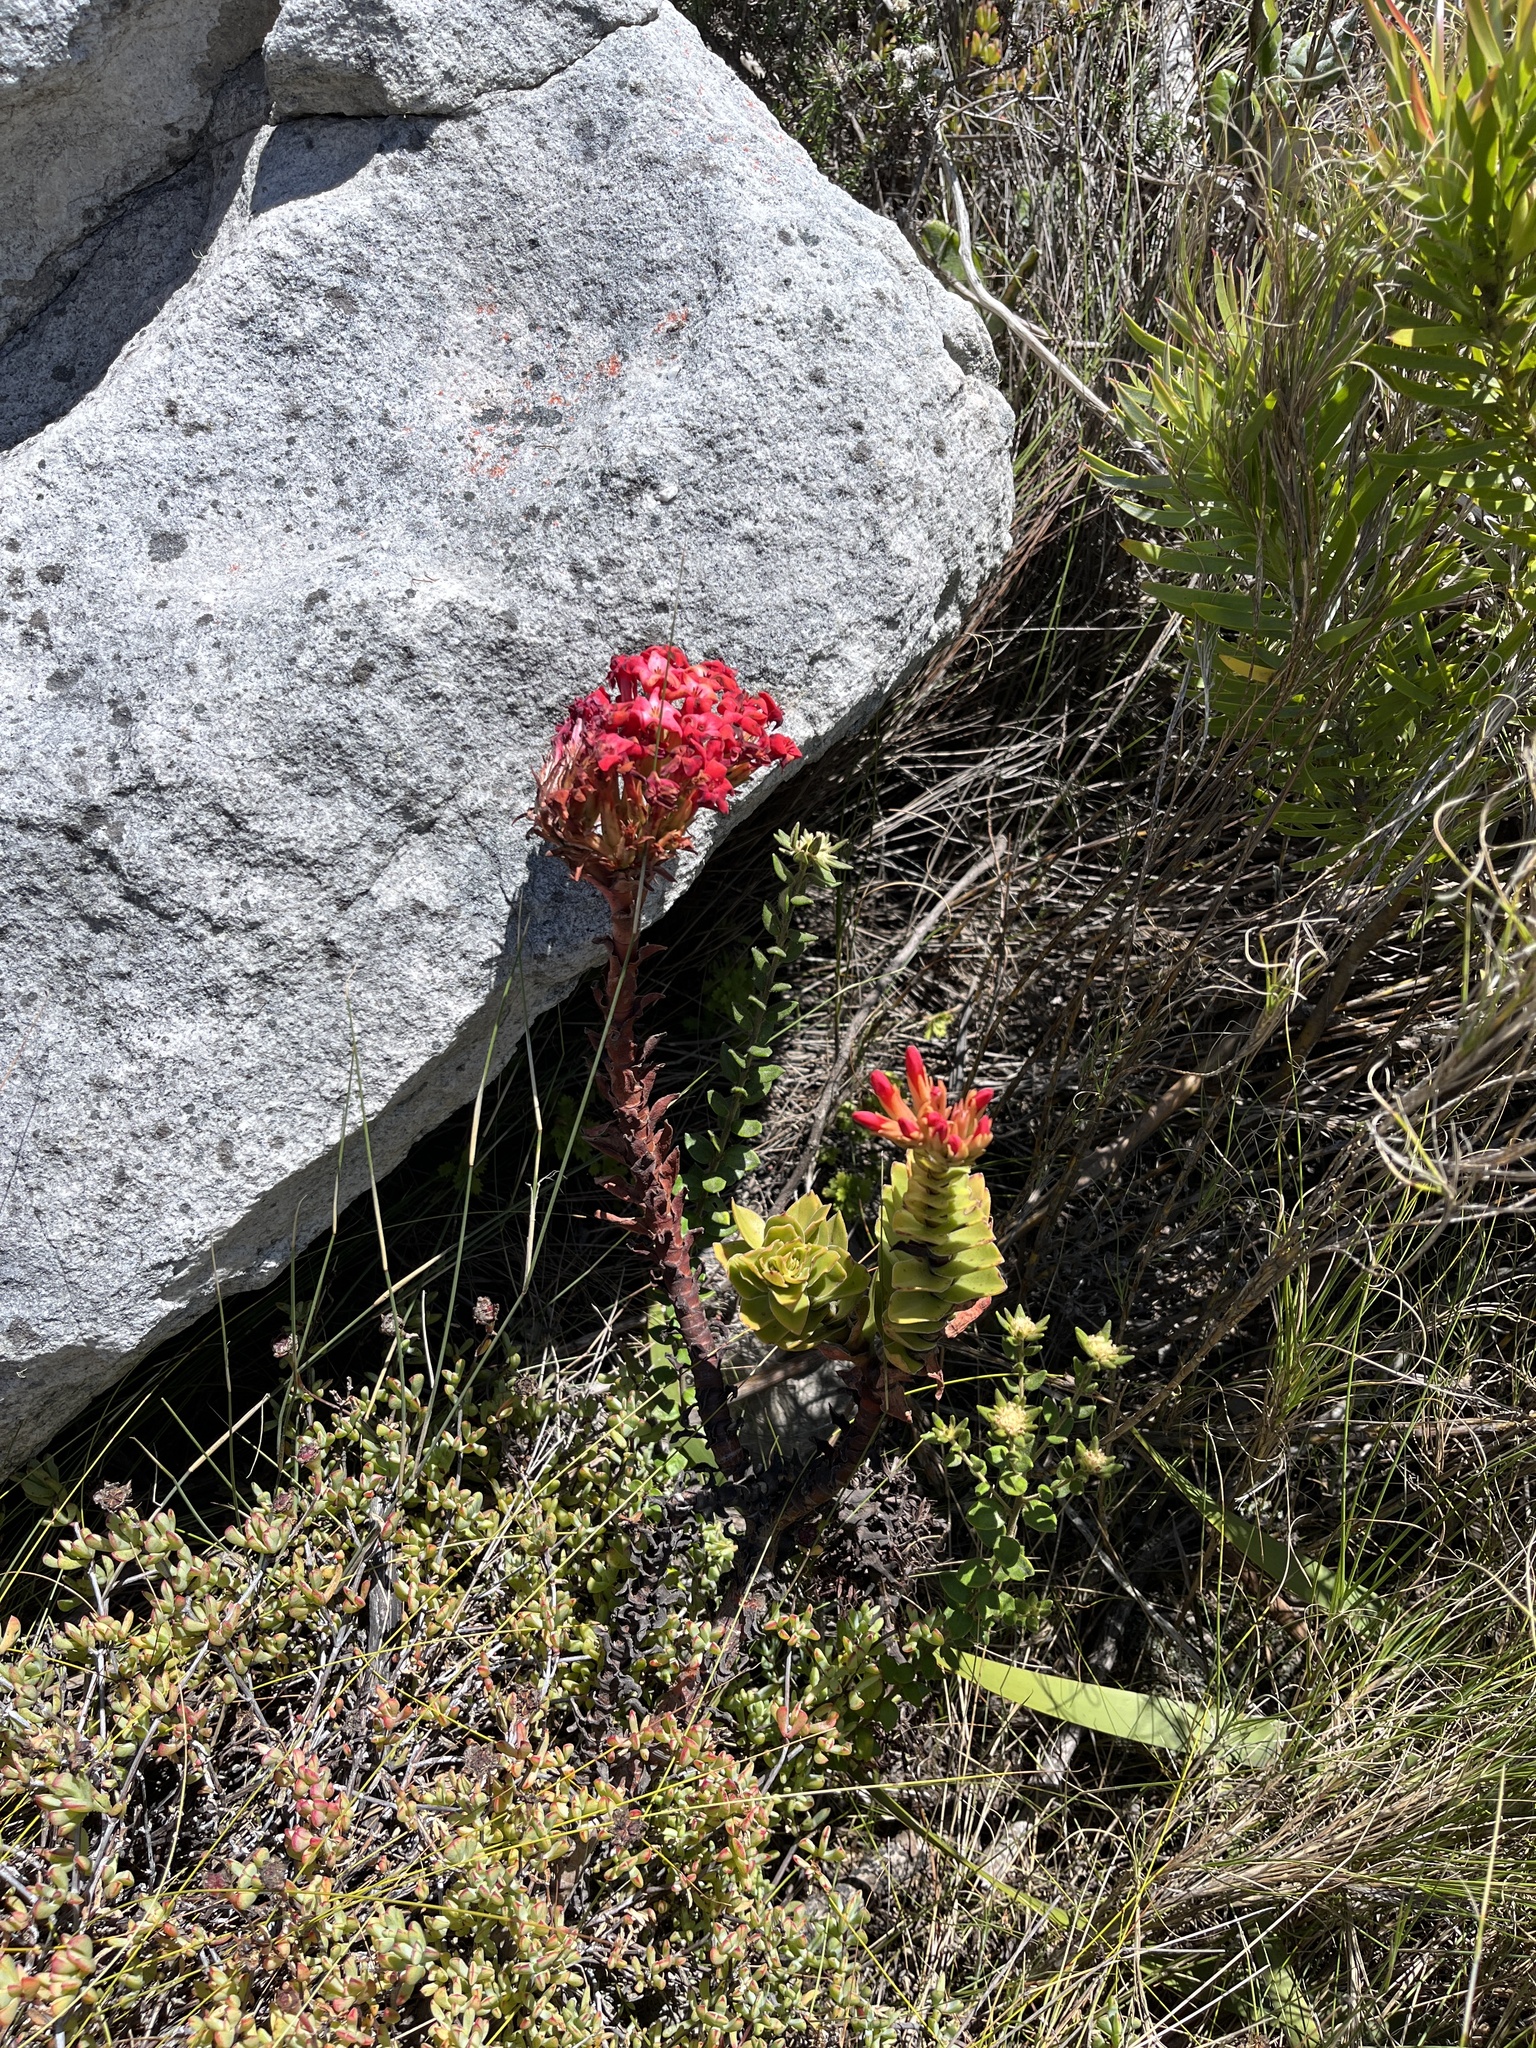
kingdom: Plantae
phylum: Tracheophyta
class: Magnoliopsida
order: Saxifragales
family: Crassulaceae
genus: Crassula
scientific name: Crassula coccinea
